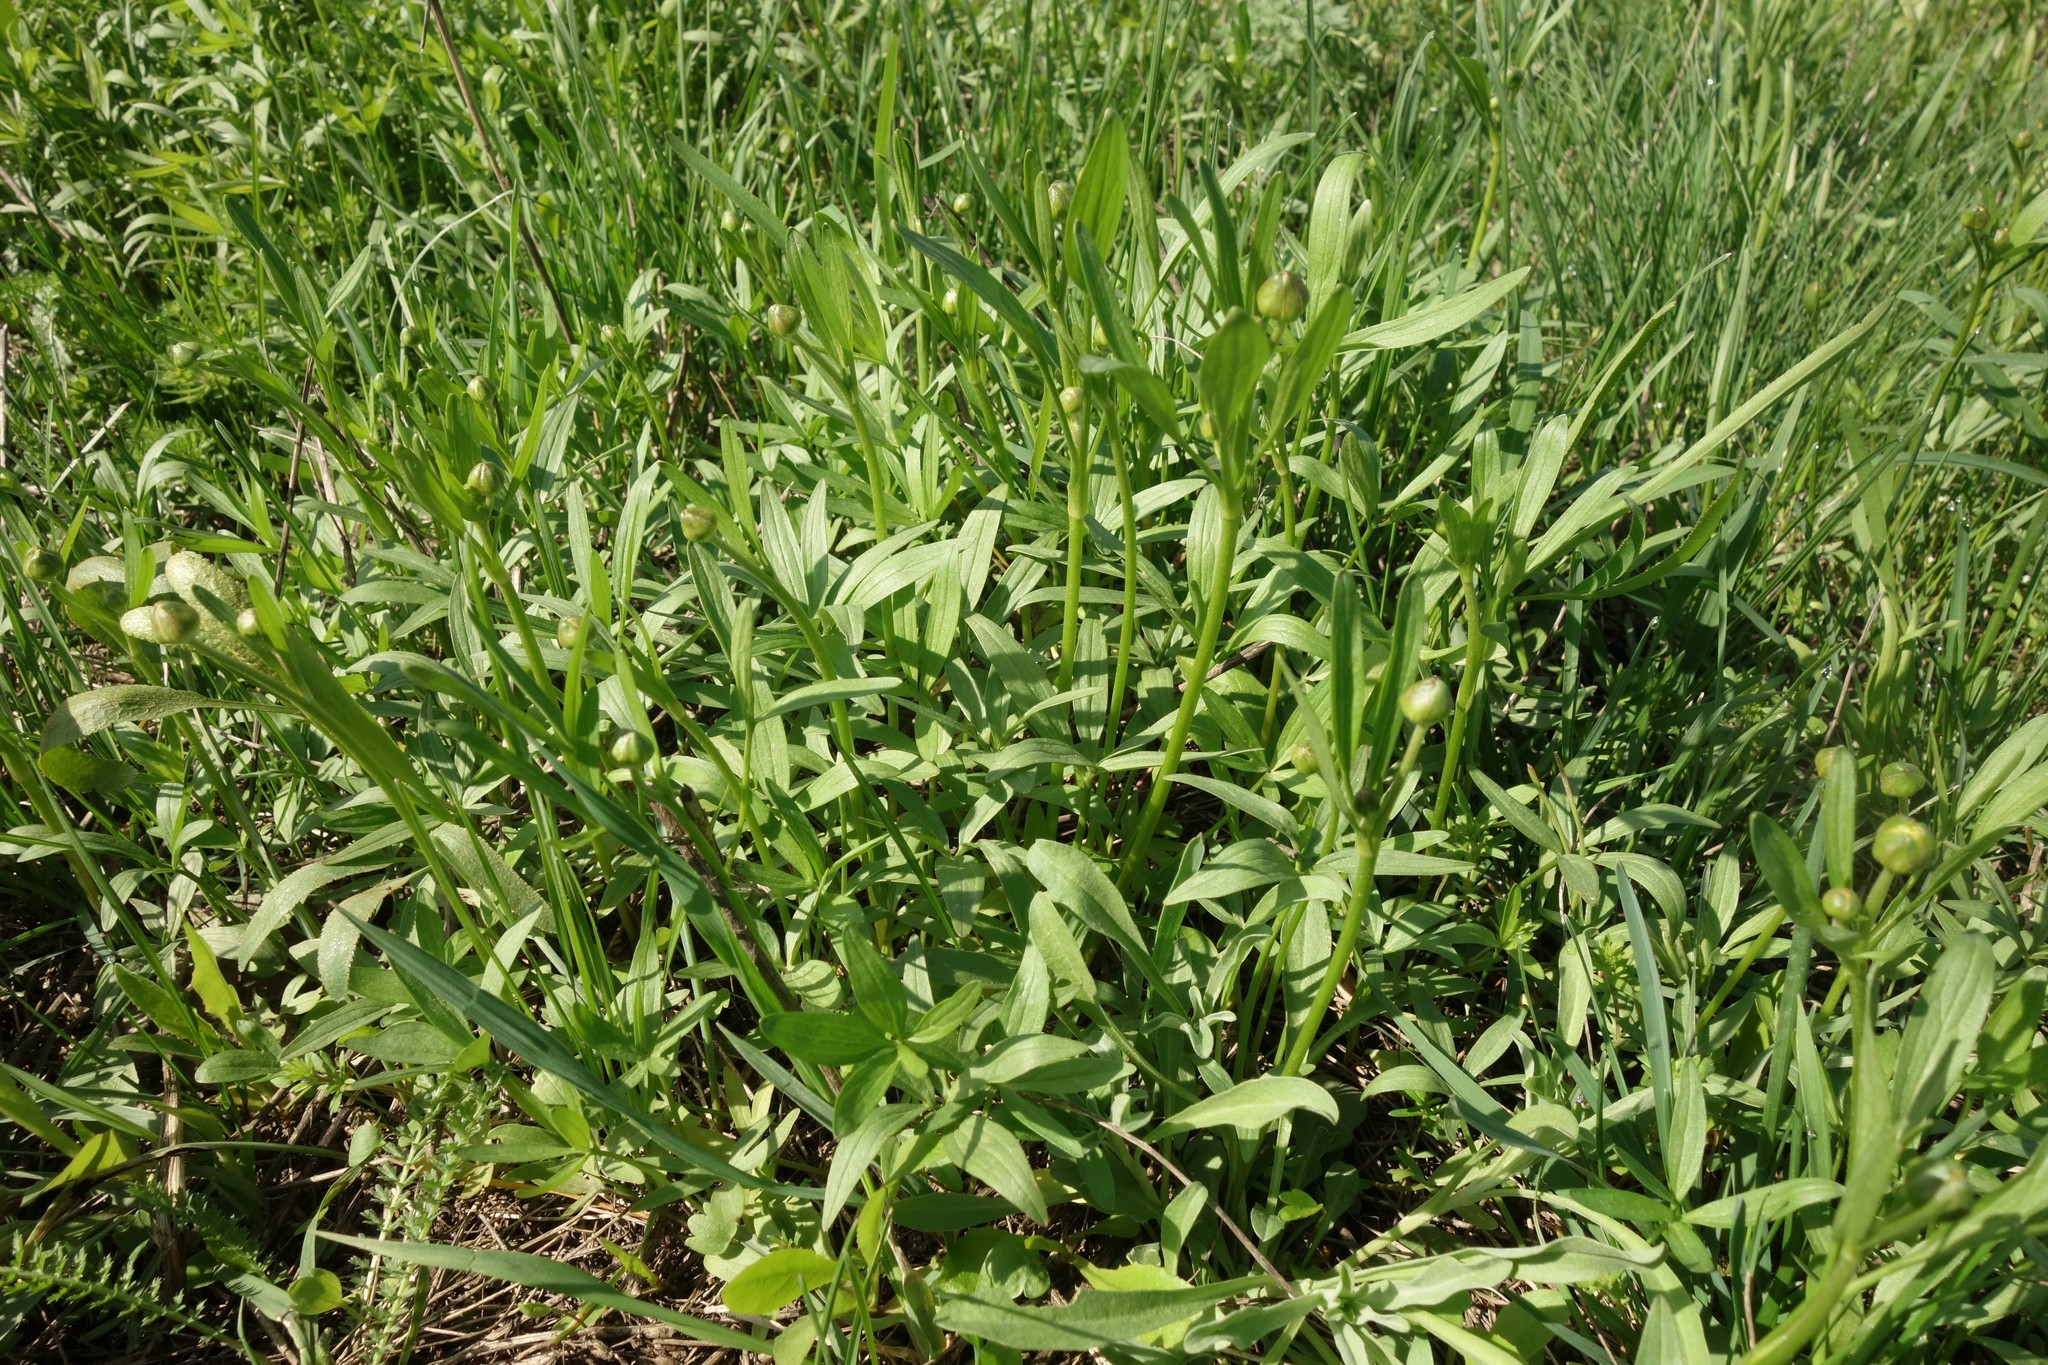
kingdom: Plantae
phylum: Tracheophyta
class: Magnoliopsida
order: Ranunculales
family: Ranunculaceae
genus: Ranunculus
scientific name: Ranunculus pedatus
